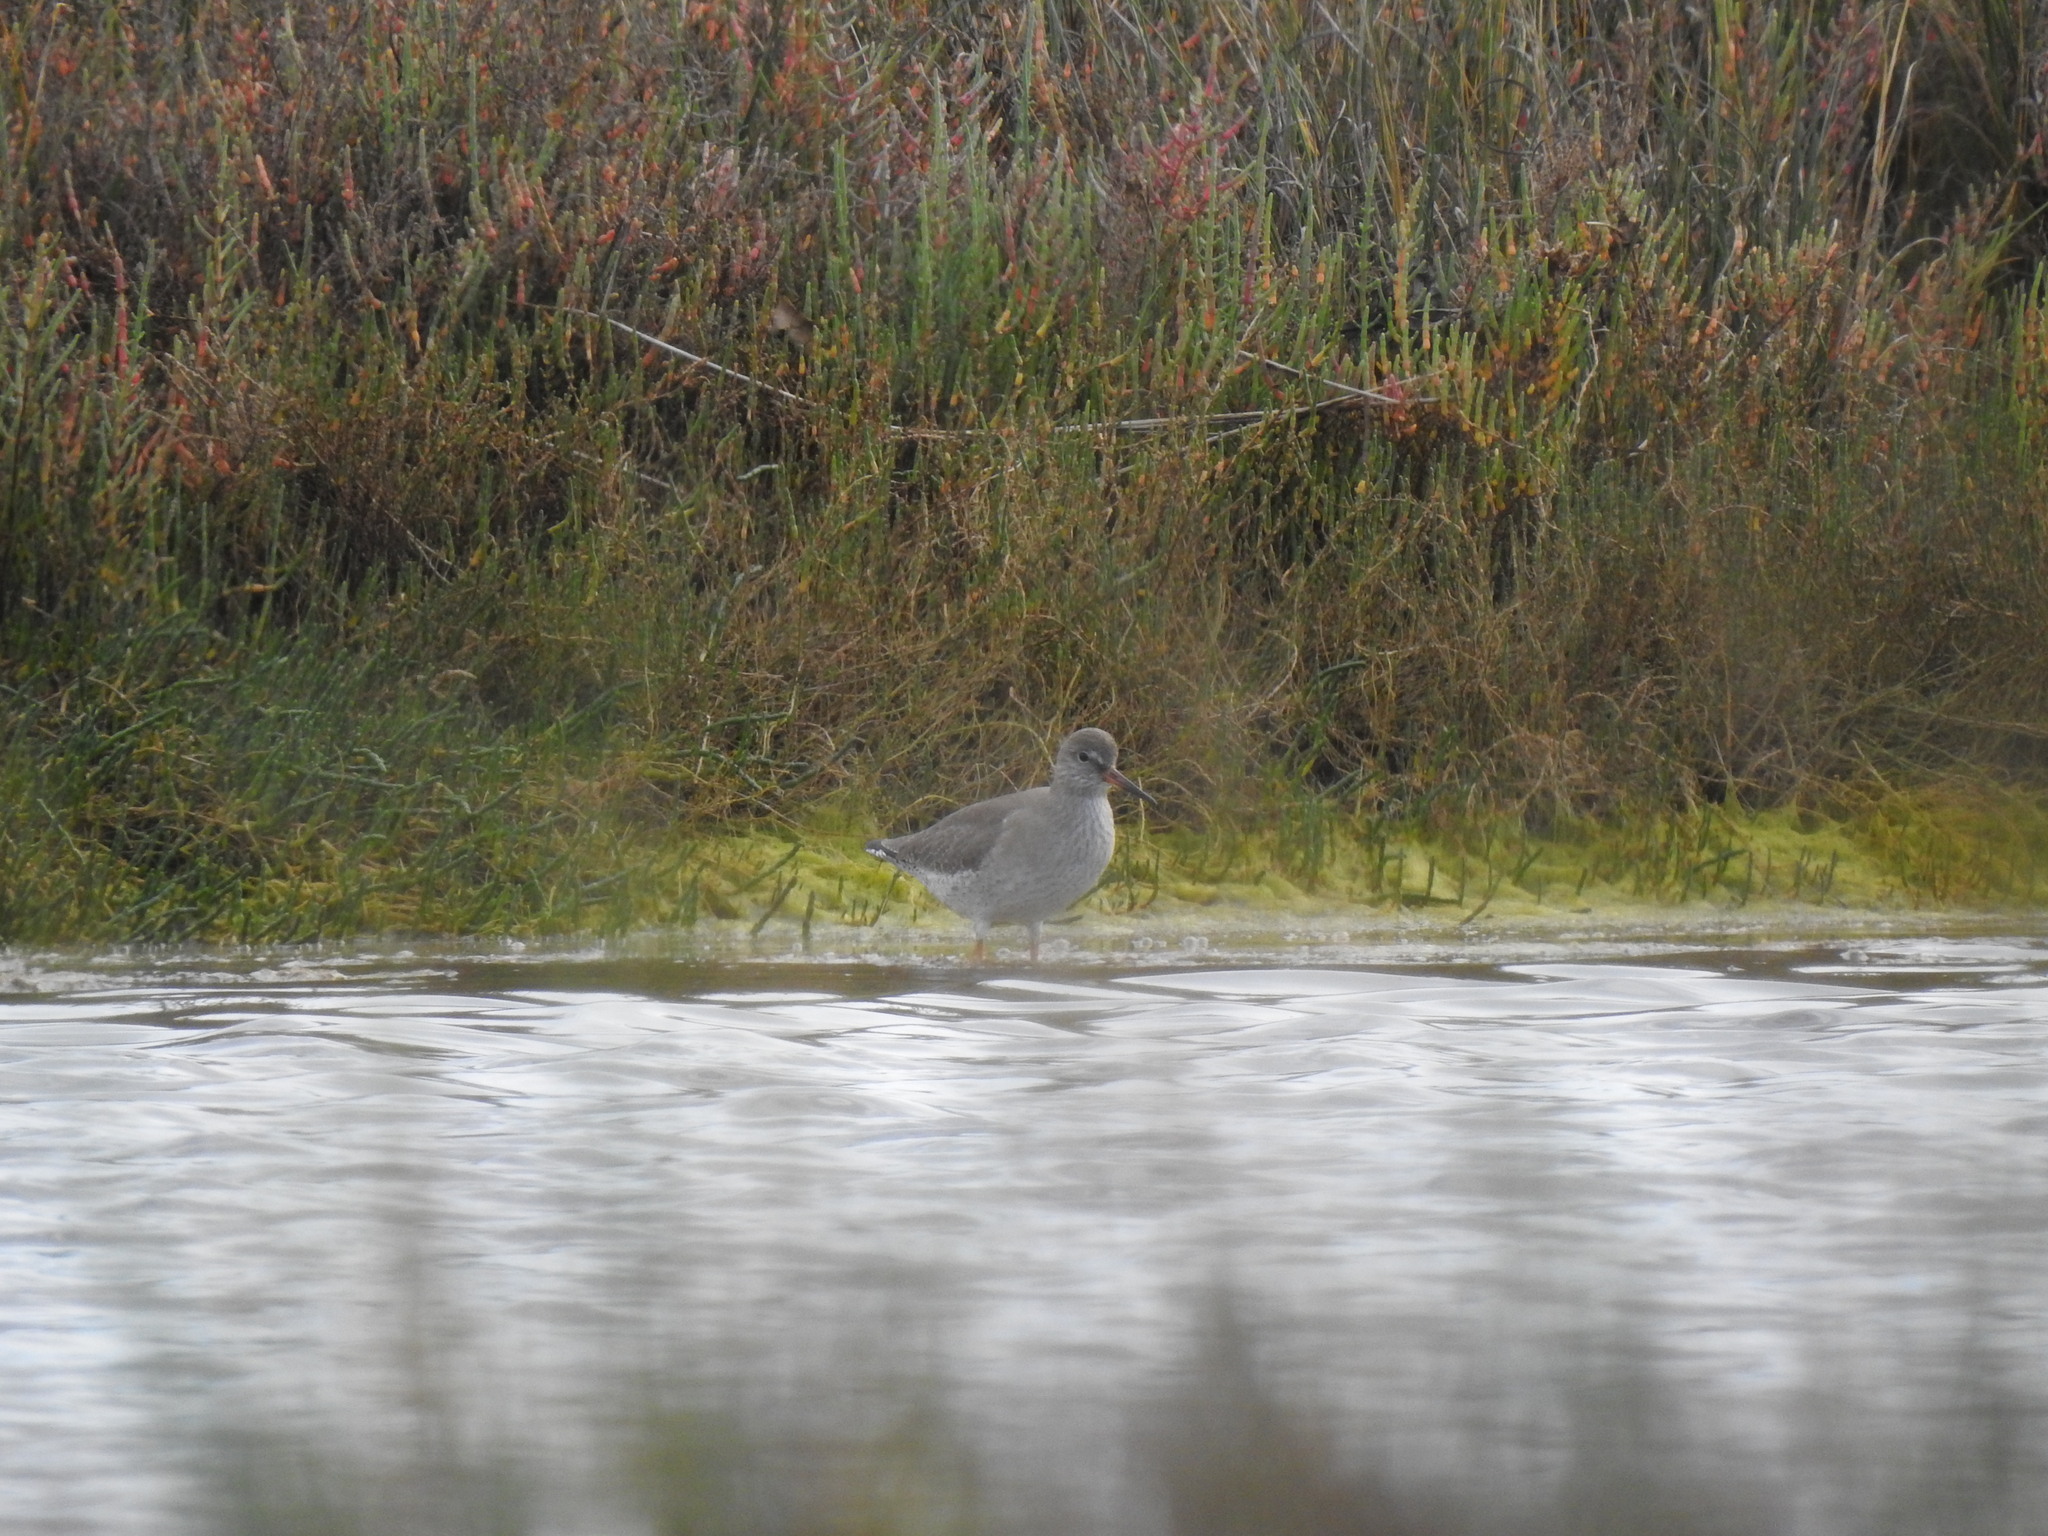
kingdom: Animalia
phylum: Chordata
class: Aves
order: Charadriiformes
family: Scolopacidae
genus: Tringa
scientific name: Tringa totanus
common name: Common redshank
